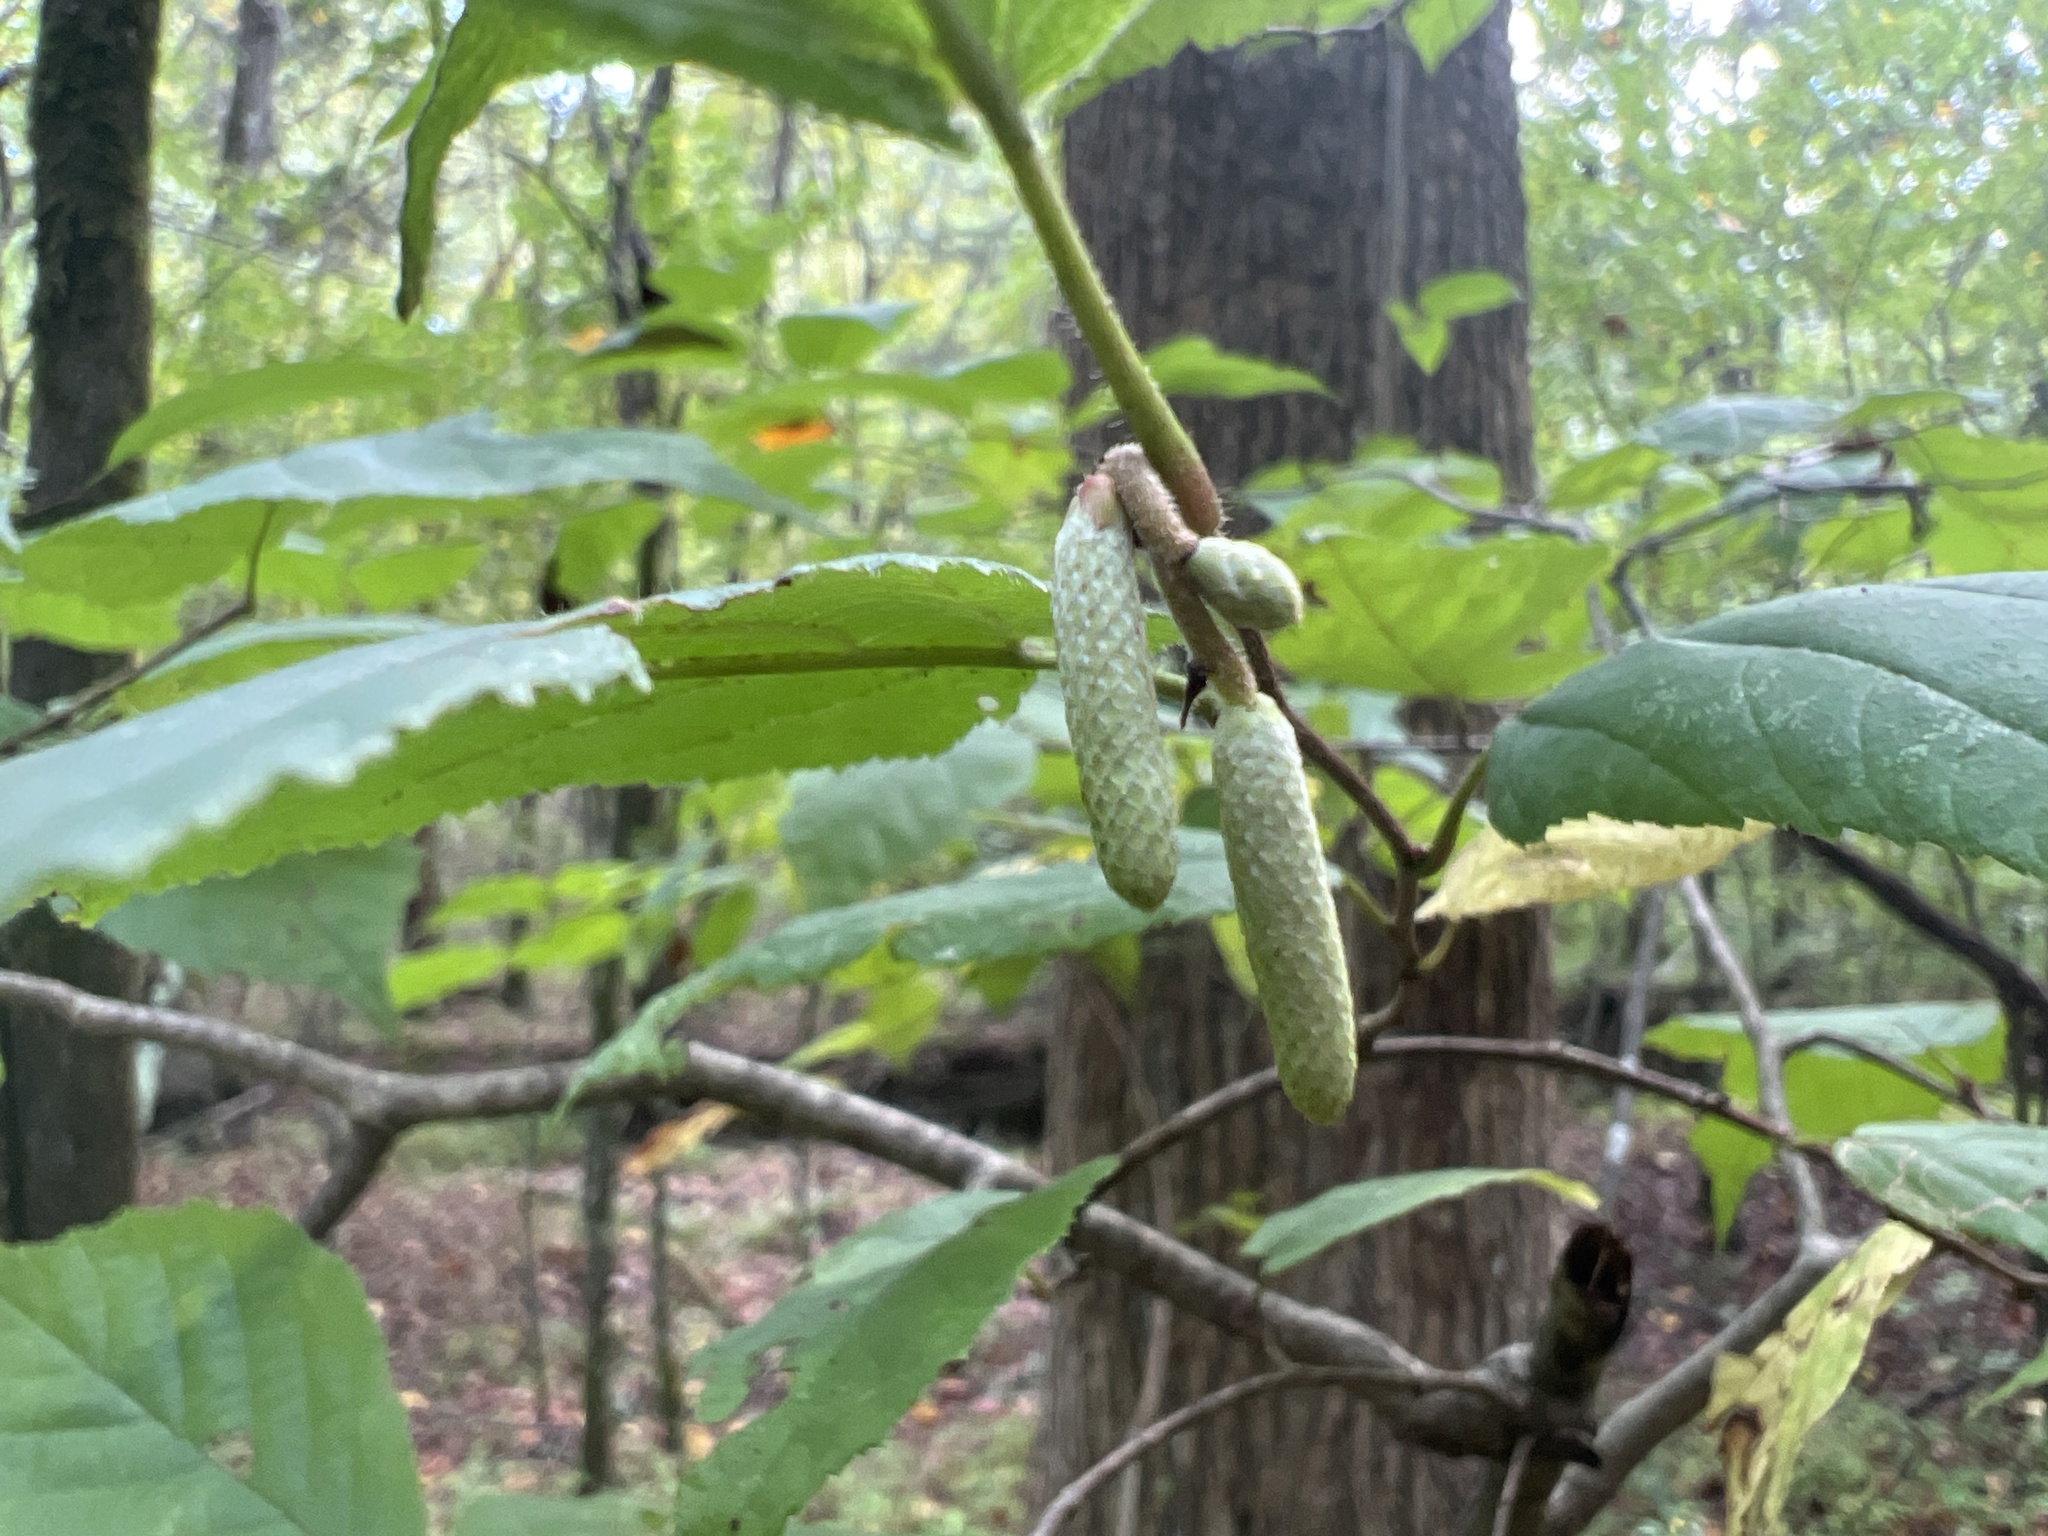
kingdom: Plantae
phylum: Tracheophyta
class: Magnoliopsida
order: Fagales
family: Betulaceae
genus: Corylus
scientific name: Corylus americana
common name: American hazel
